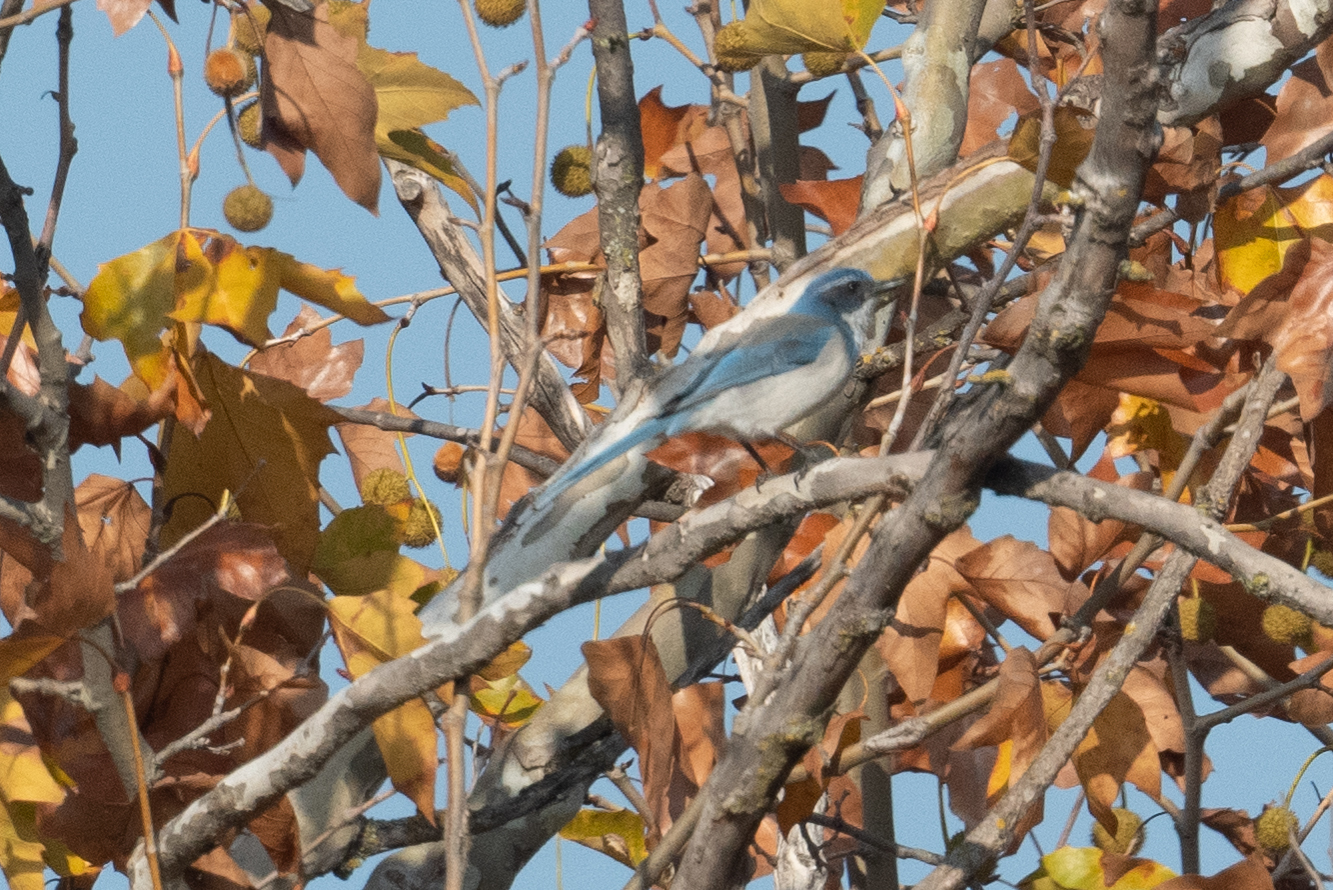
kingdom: Animalia
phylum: Chordata
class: Aves
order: Passeriformes
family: Corvidae
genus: Aphelocoma
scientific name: Aphelocoma californica
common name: California scrub-jay
